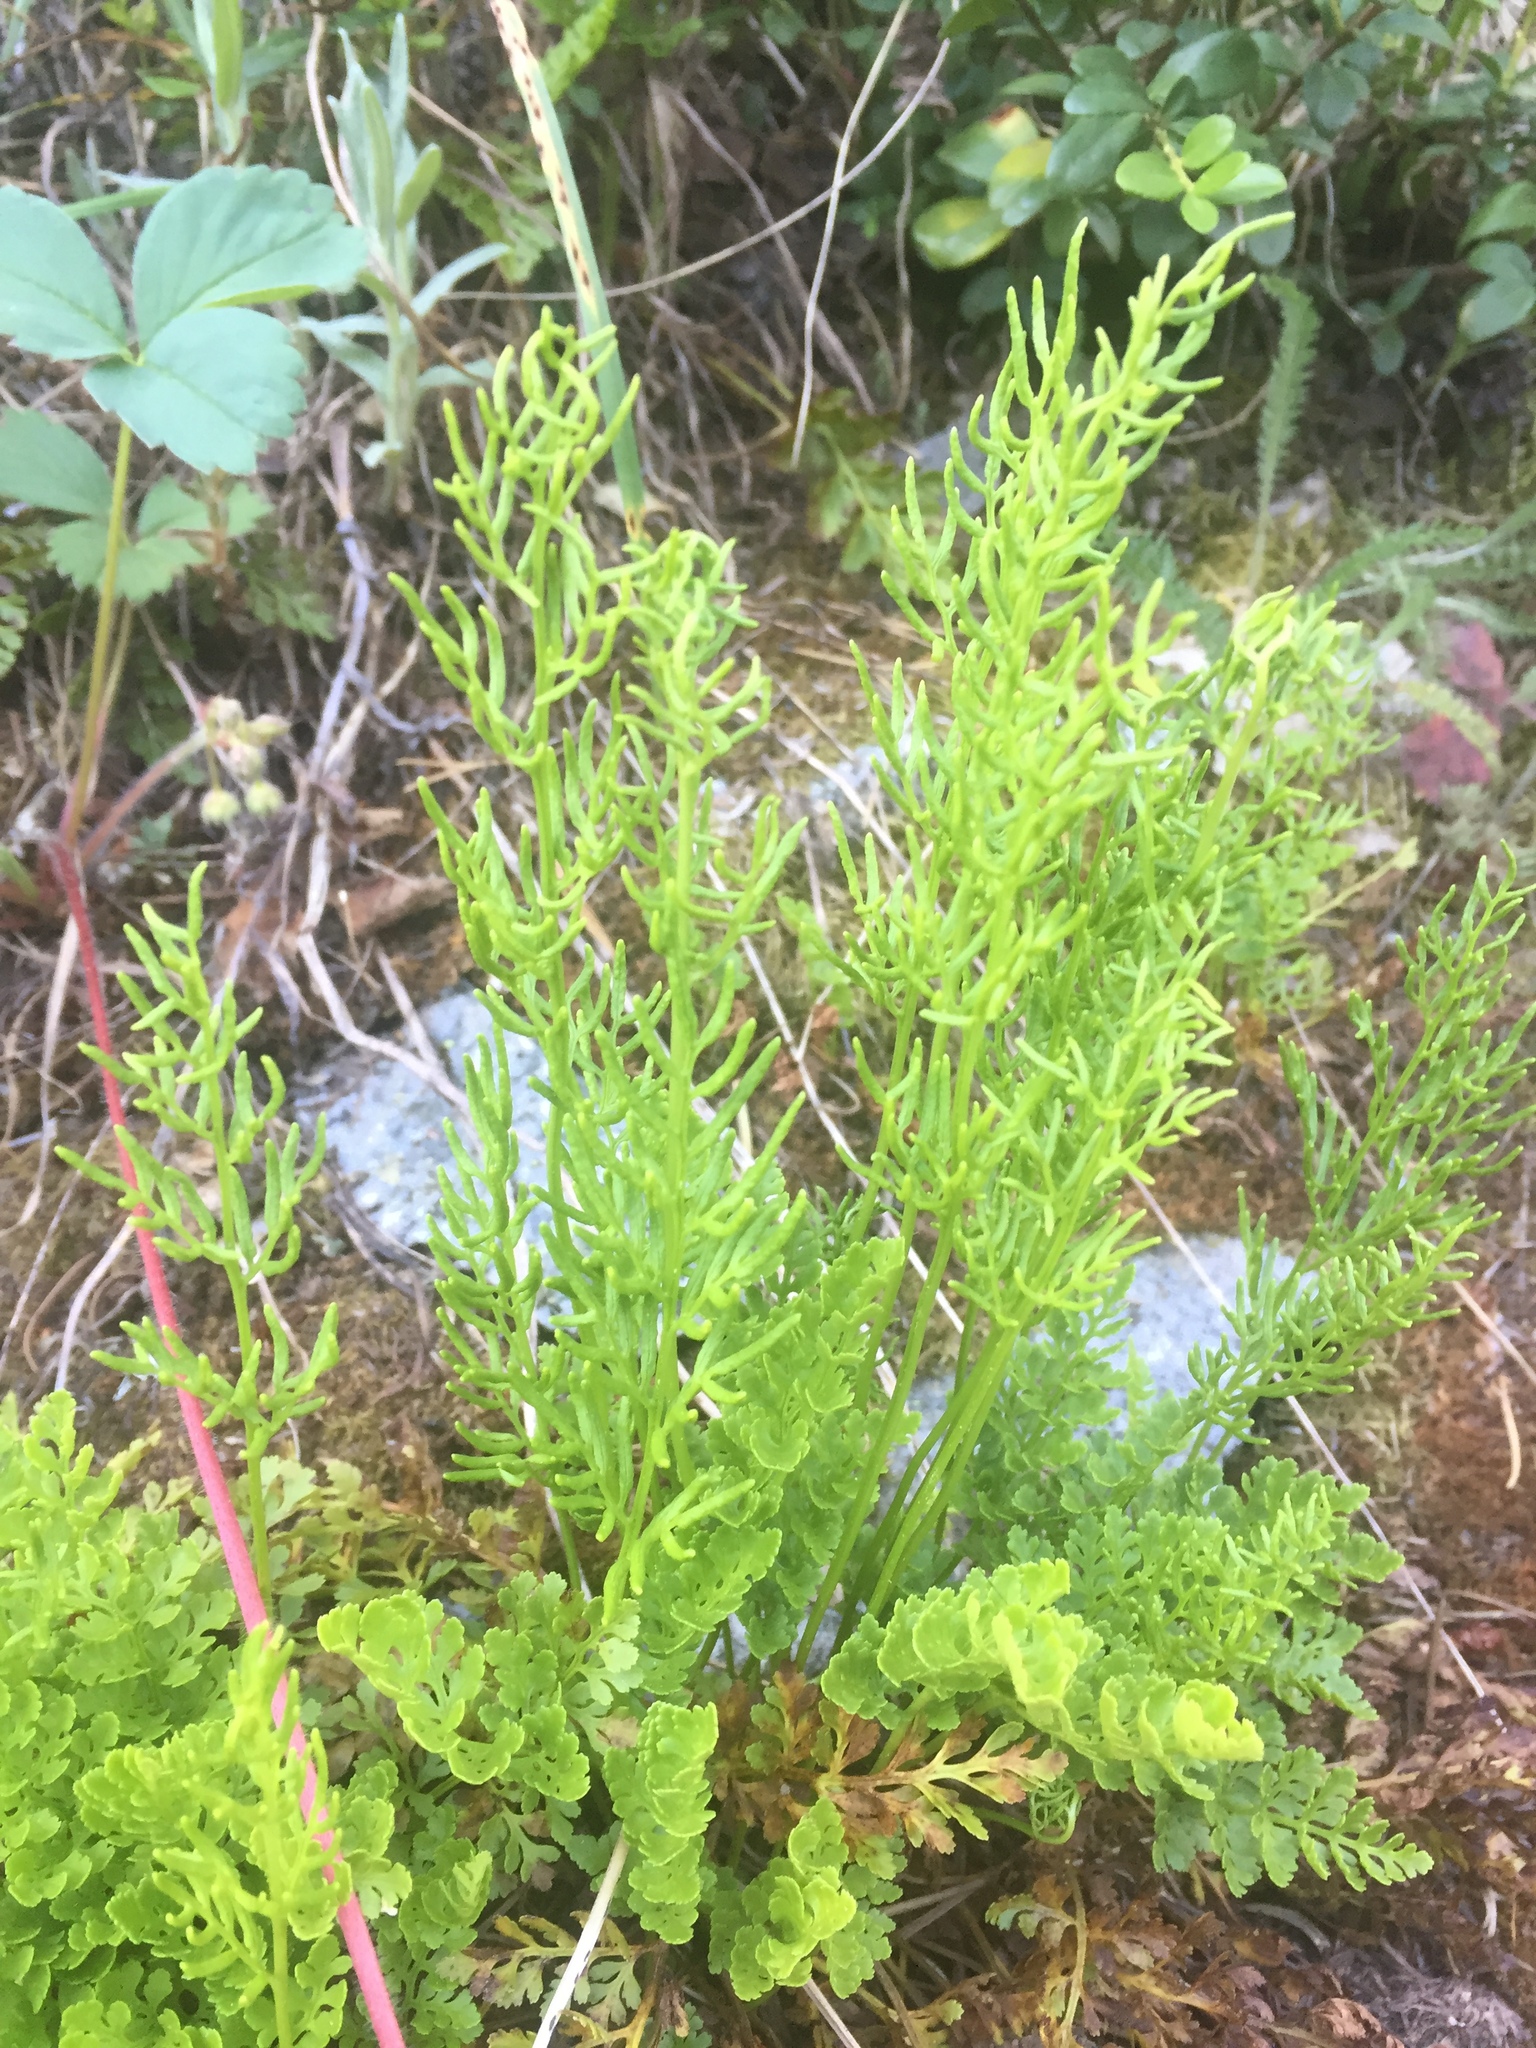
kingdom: Plantae
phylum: Tracheophyta
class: Polypodiopsida
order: Polypodiales
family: Pteridaceae
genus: Cryptogramma
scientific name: Cryptogramma acrostichoides
